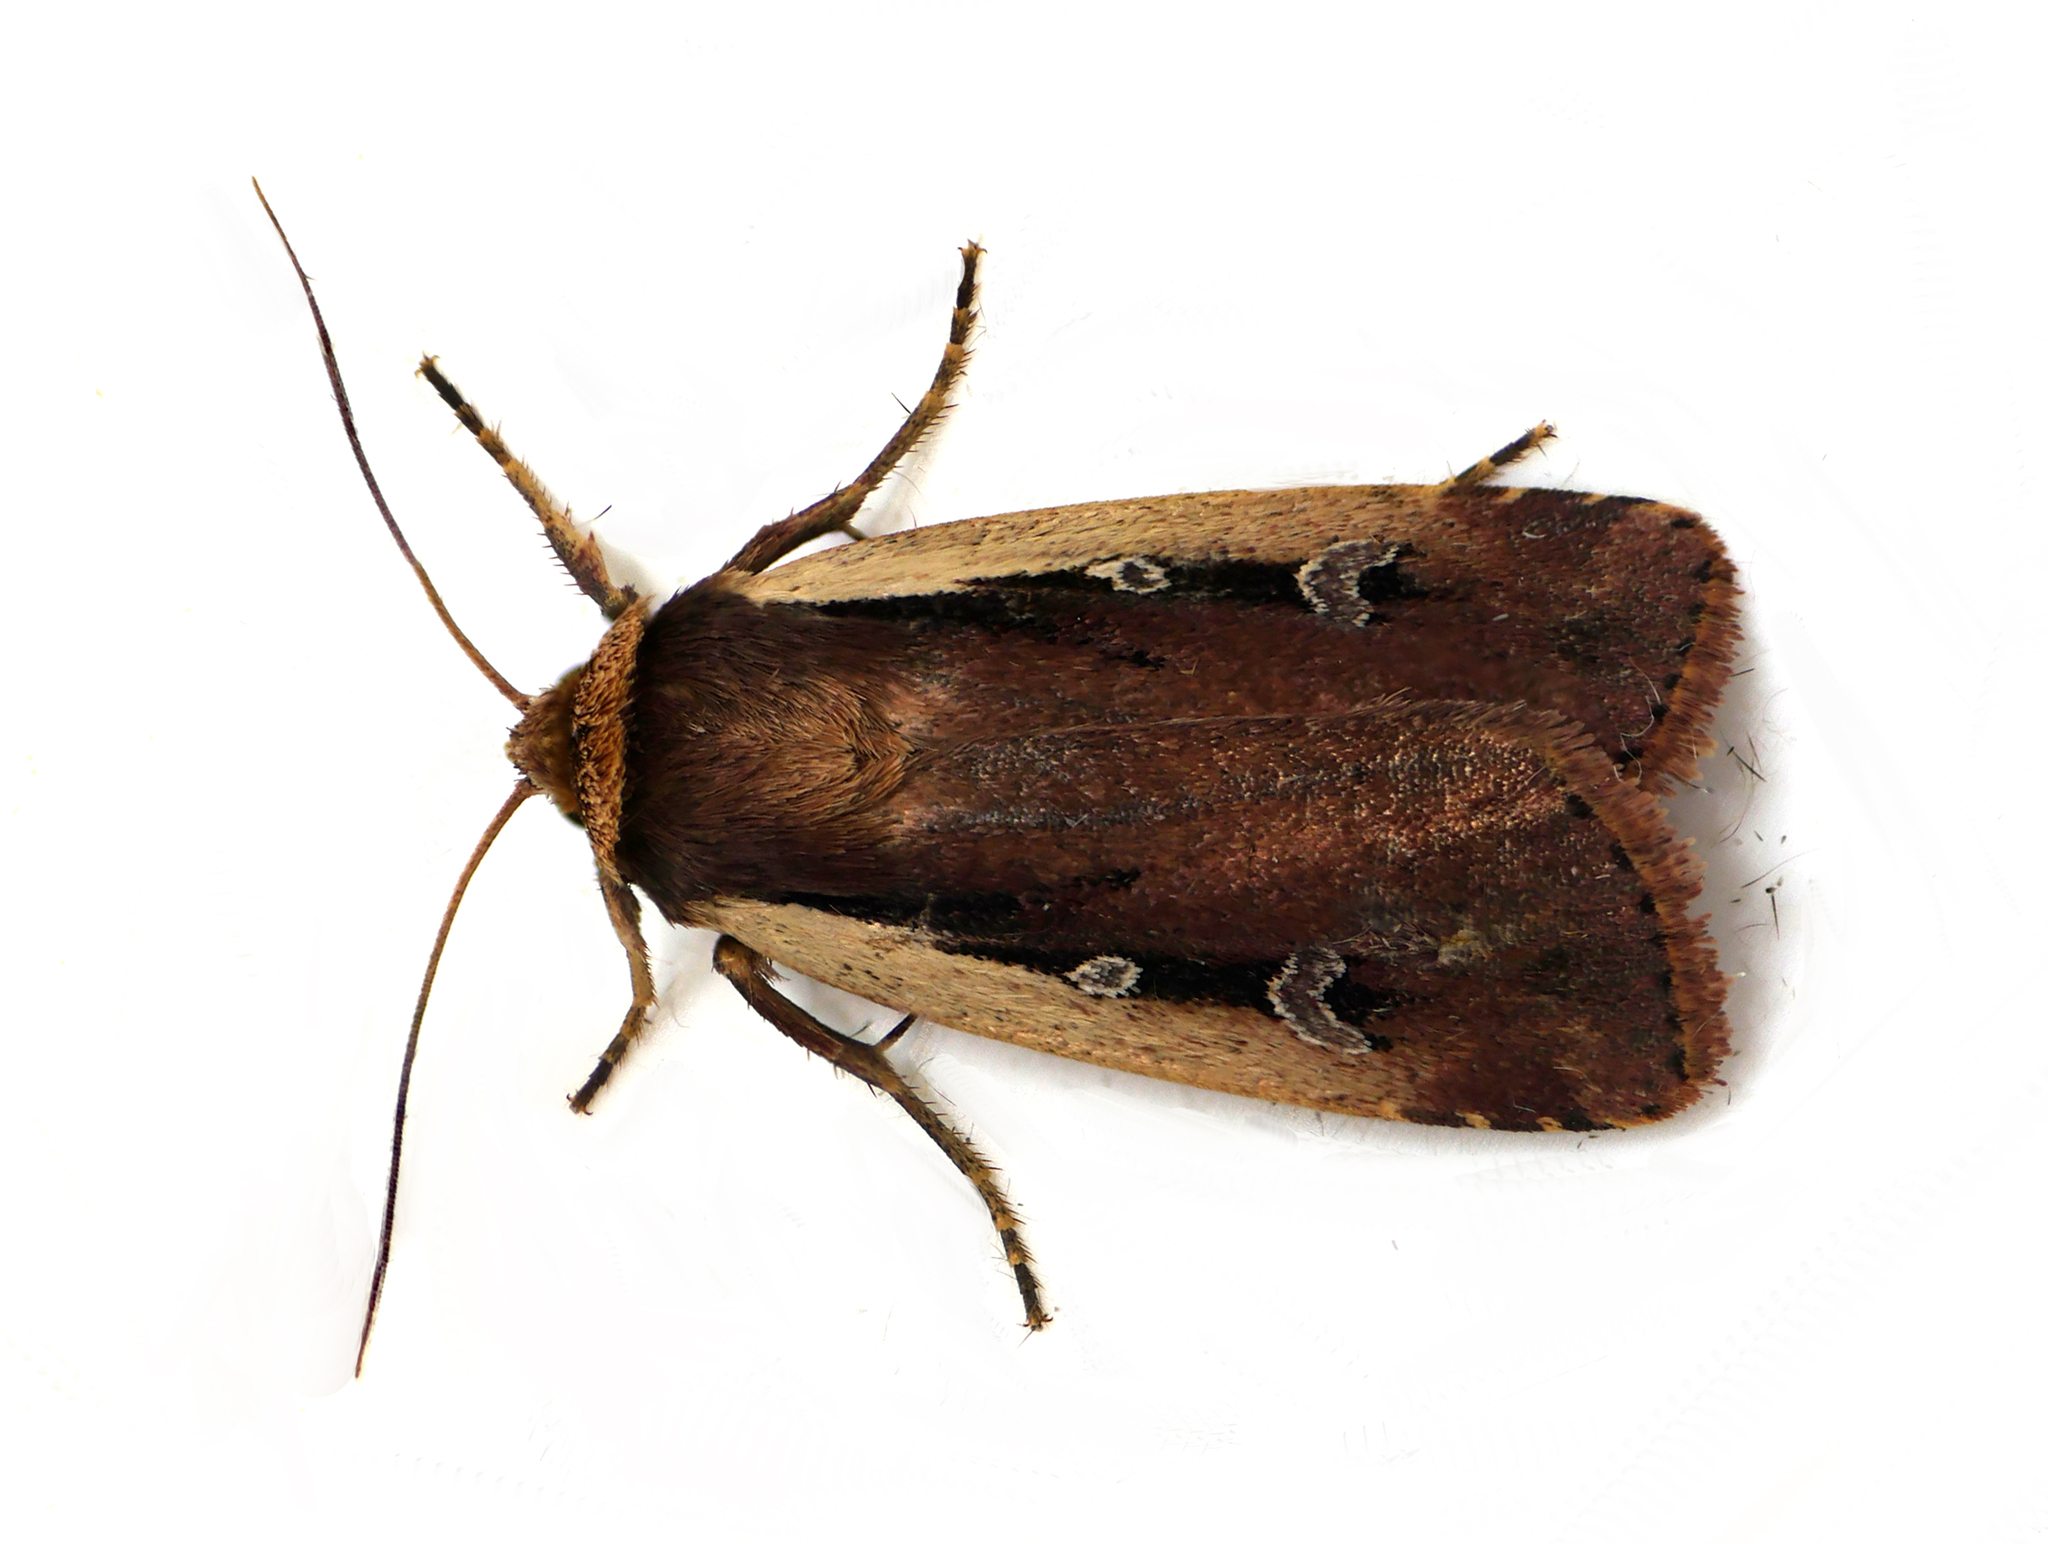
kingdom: Animalia
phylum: Arthropoda
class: Insecta
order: Lepidoptera
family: Noctuidae
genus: Ochropleura
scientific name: Ochropleura plecta
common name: Flame shoulder
